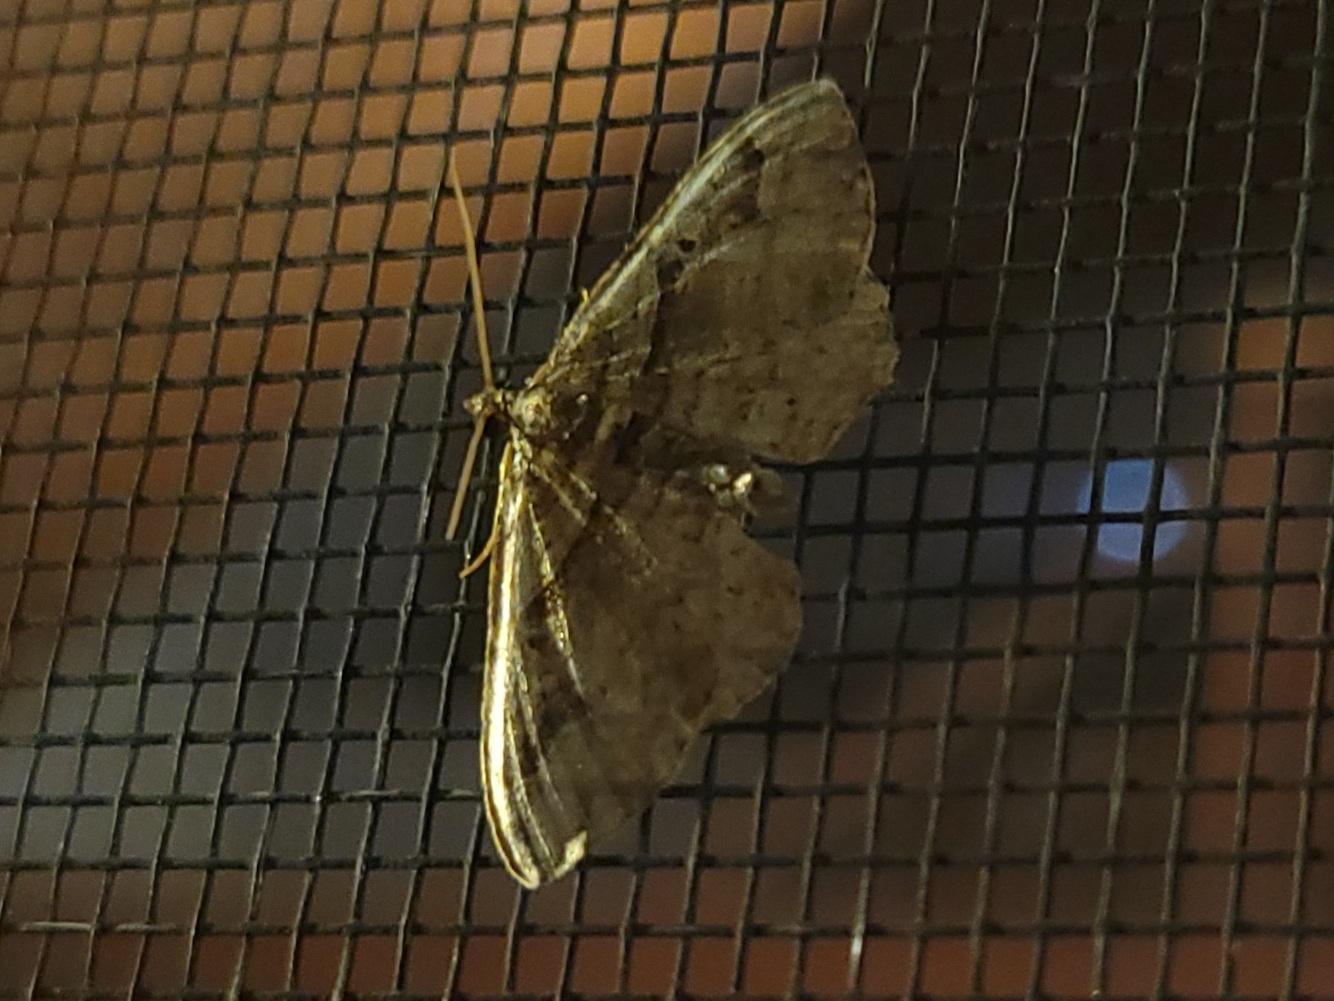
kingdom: Animalia
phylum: Arthropoda
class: Insecta
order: Lepidoptera
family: Geometridae
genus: Costaconvexa
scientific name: Costaconvexa centrostrigaria
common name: Bent-line carpet
